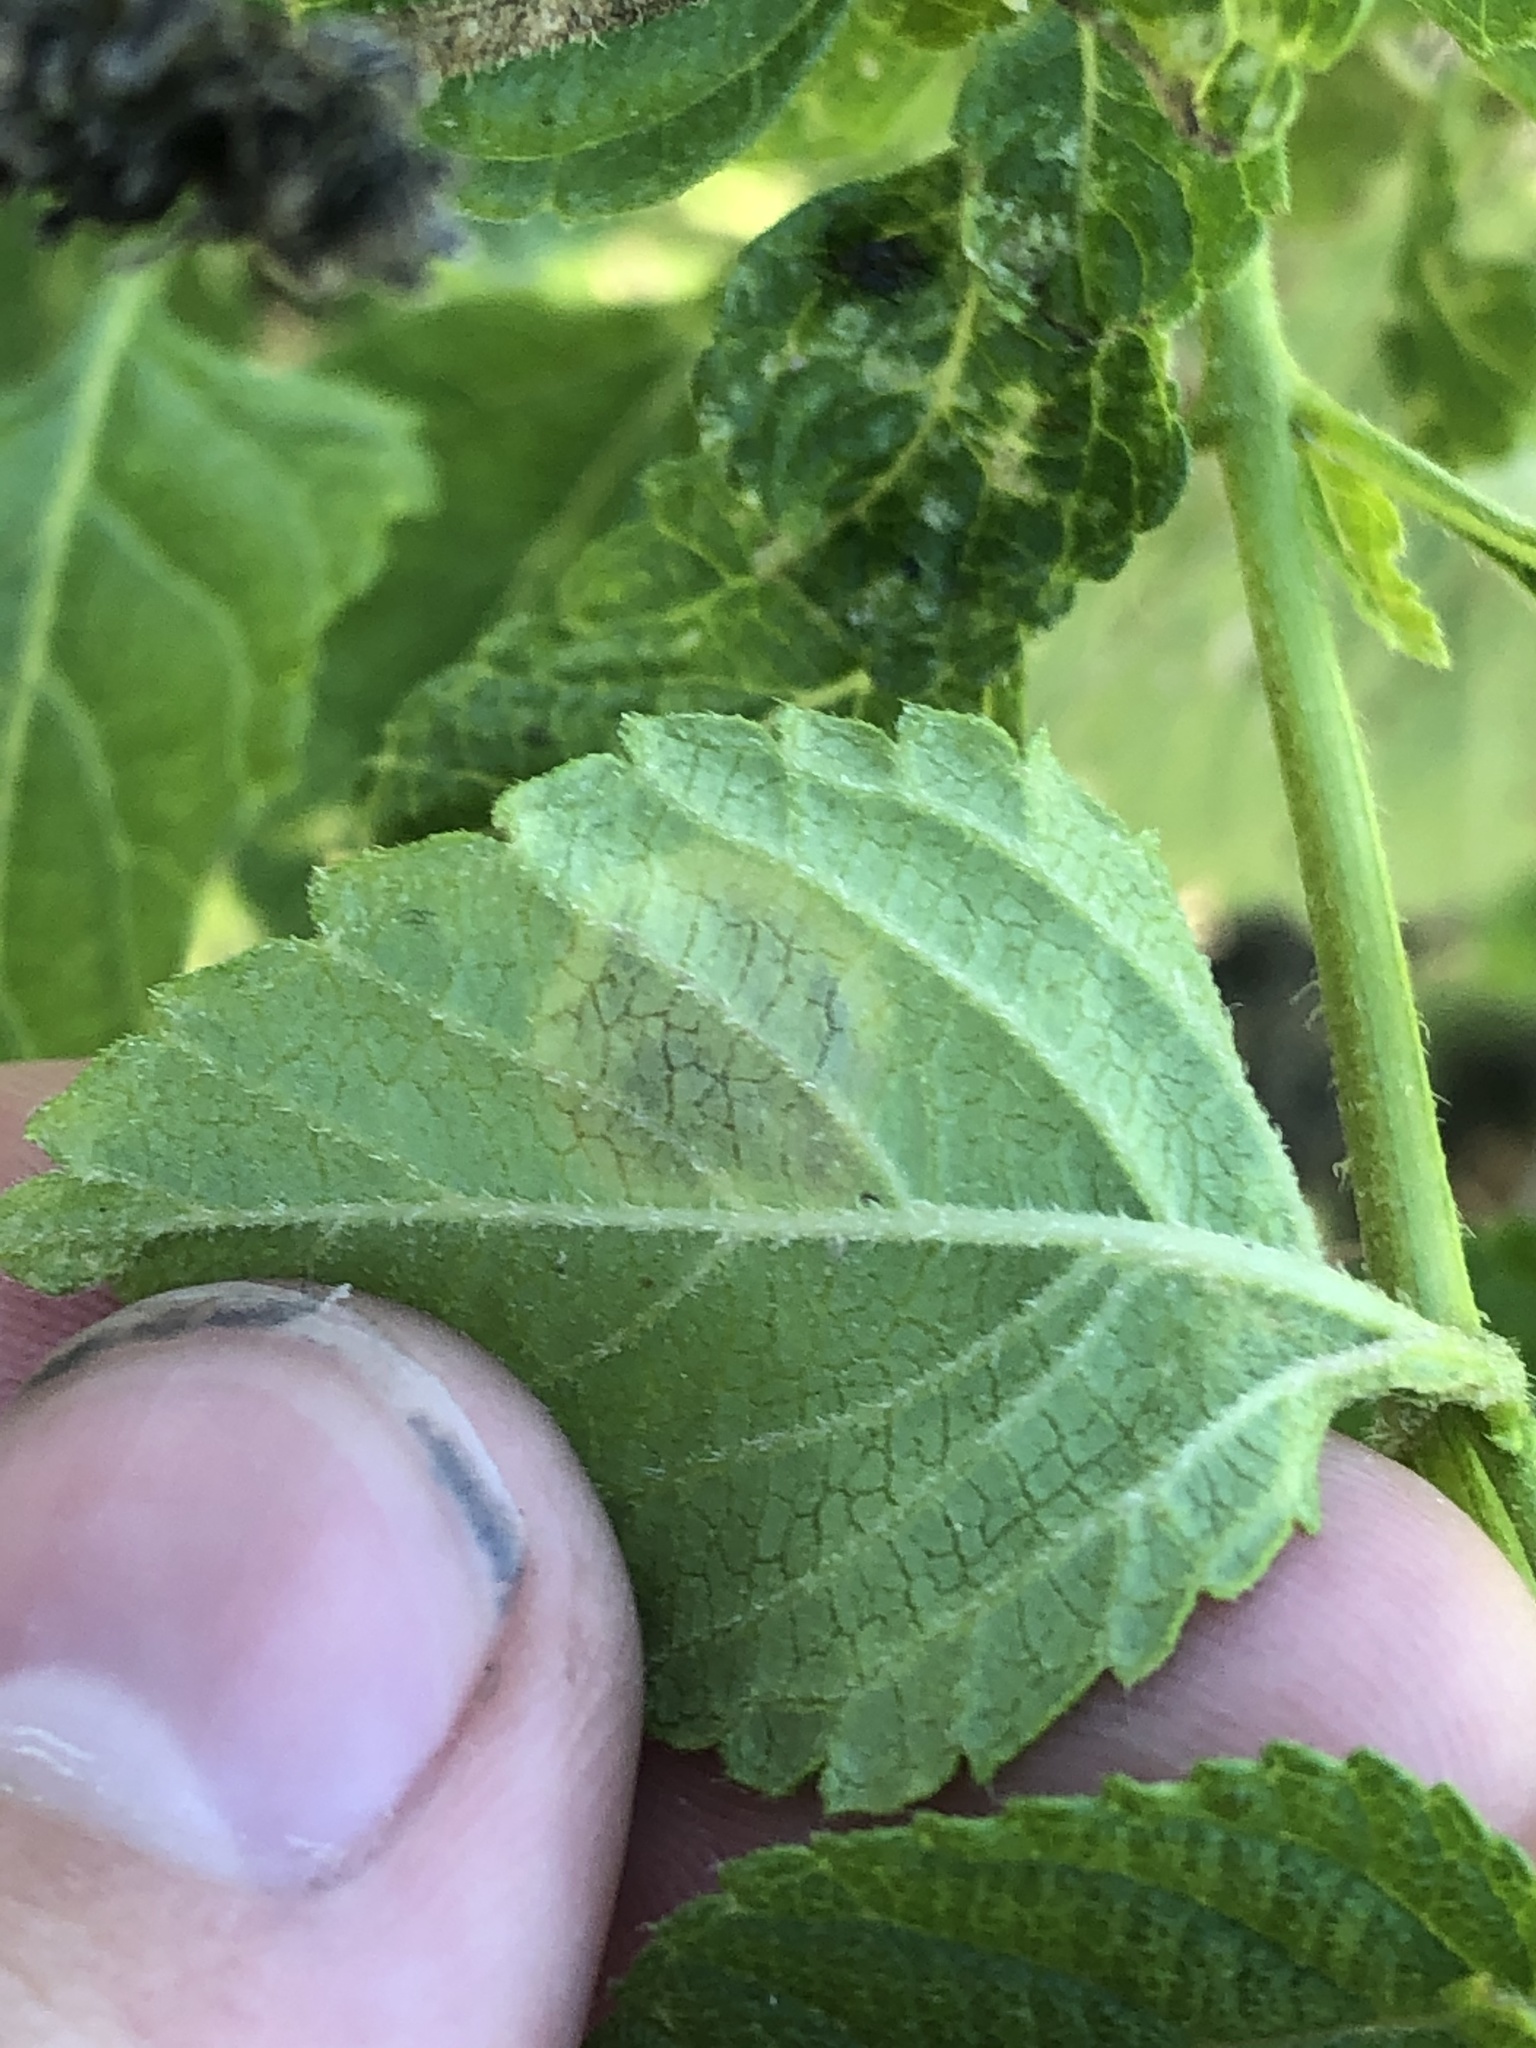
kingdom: Animalia
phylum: Arthropoda
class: Insecta
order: Diptera
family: Agromyzidae
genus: Calycomyza
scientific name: Calycomyza lantanae
